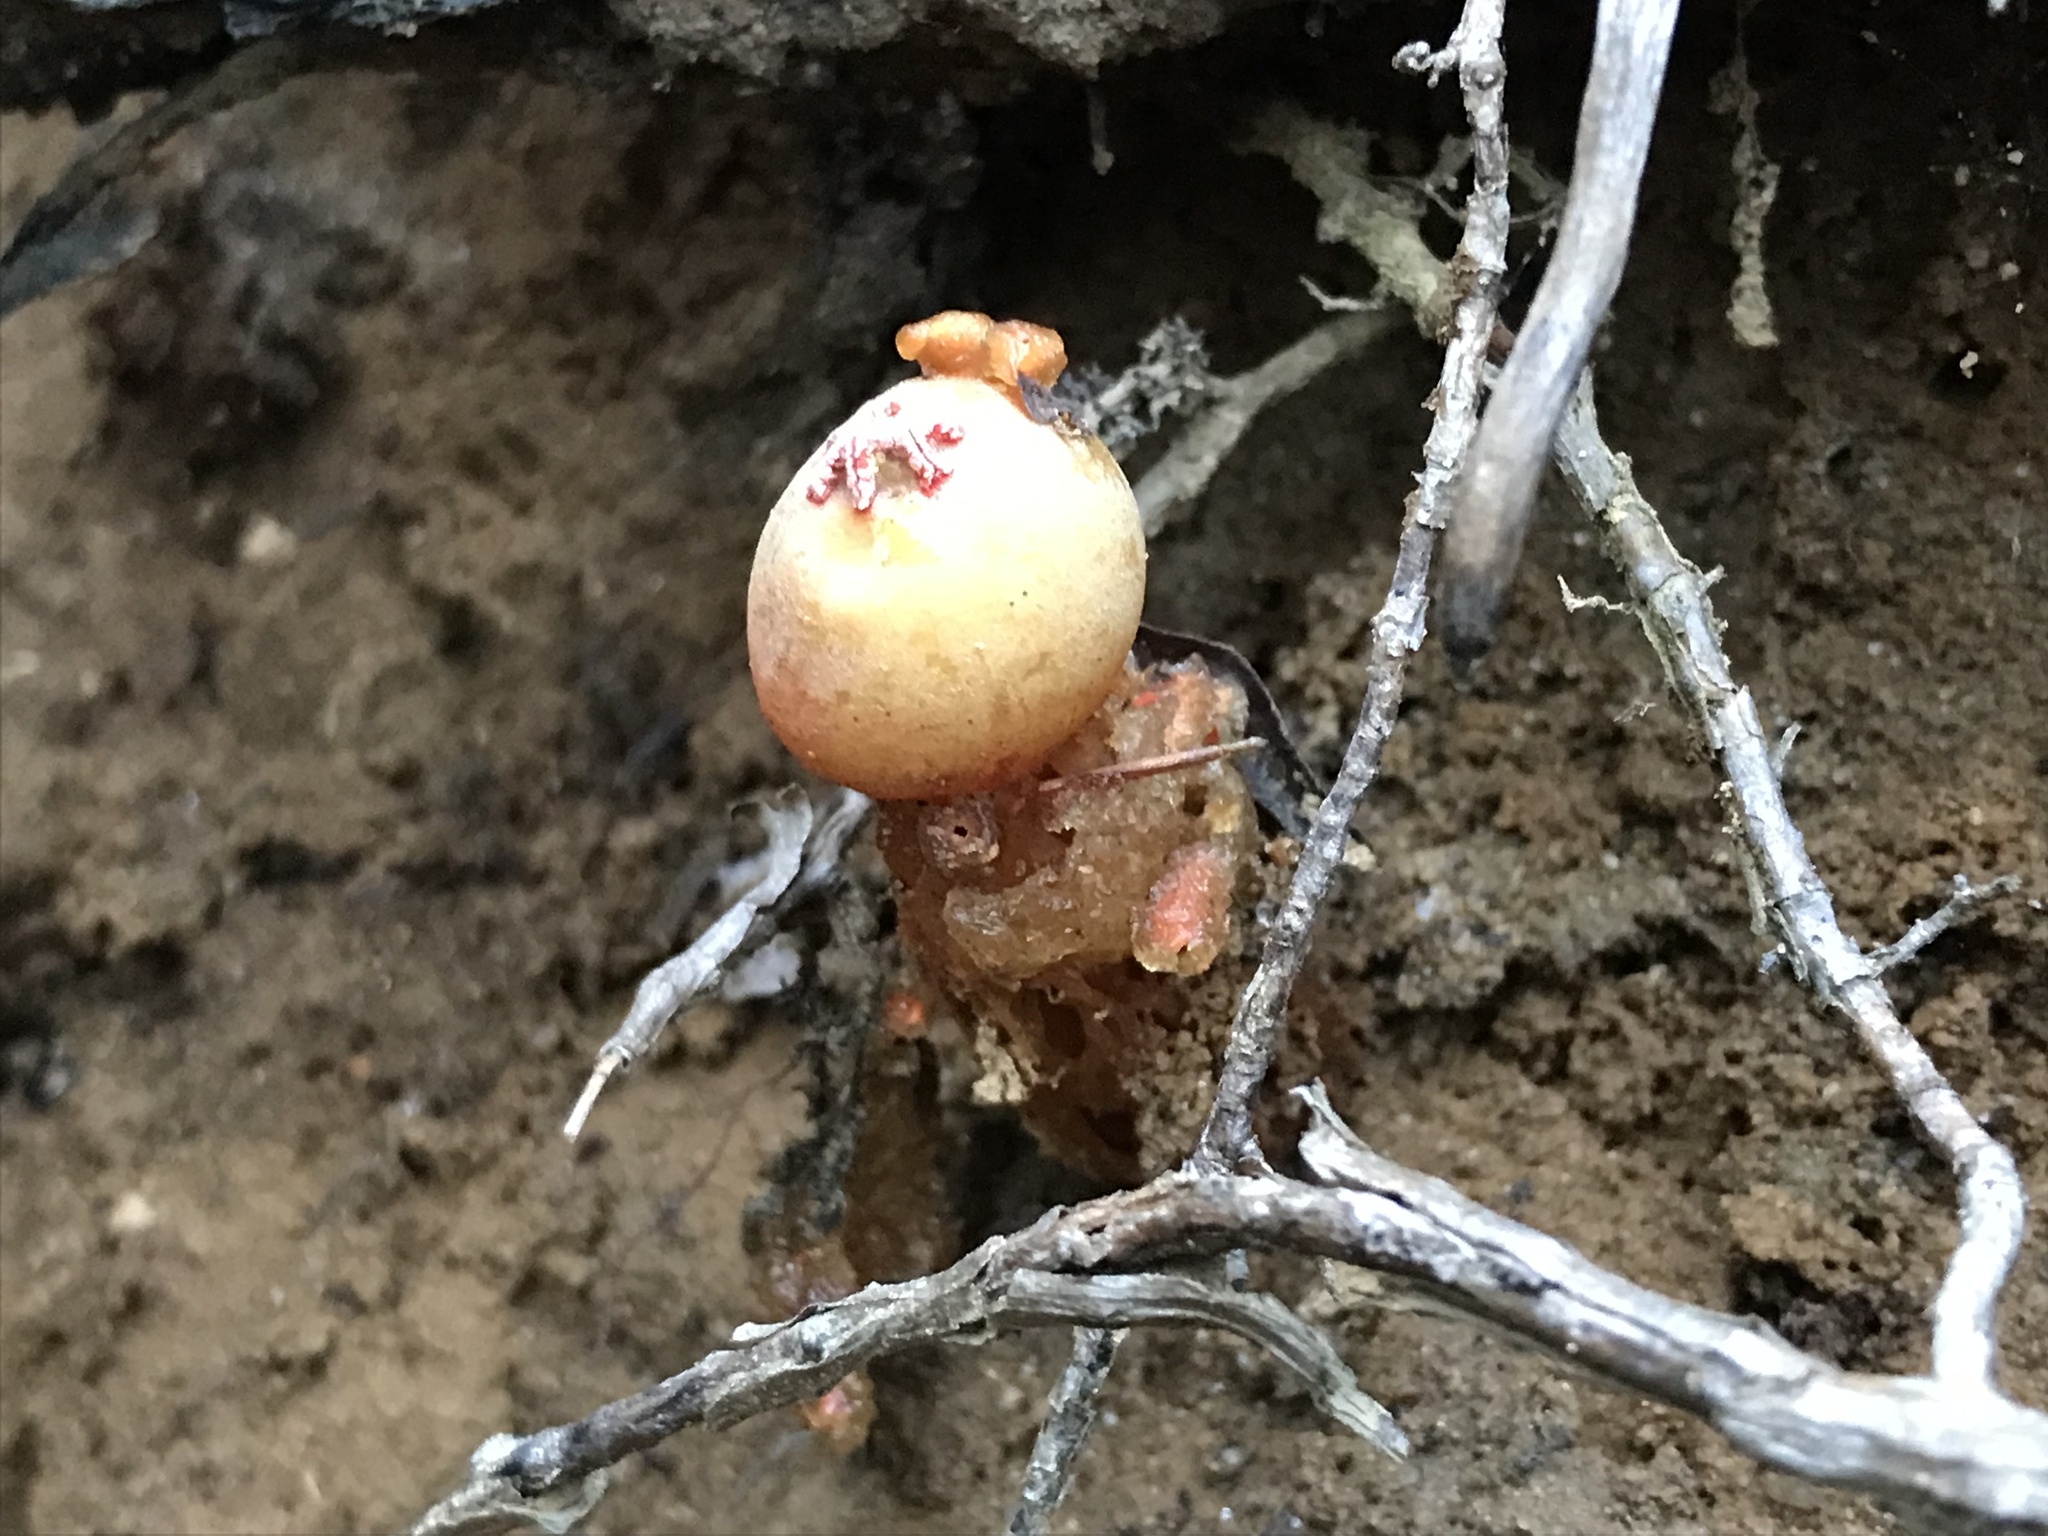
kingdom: Fungi
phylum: Basidiomycota
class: Agaricomycetes
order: Boletales
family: Calostomataceae
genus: Calostoma
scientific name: Calostoma cinnabarinum
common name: Stalked puffball-in-aspic
